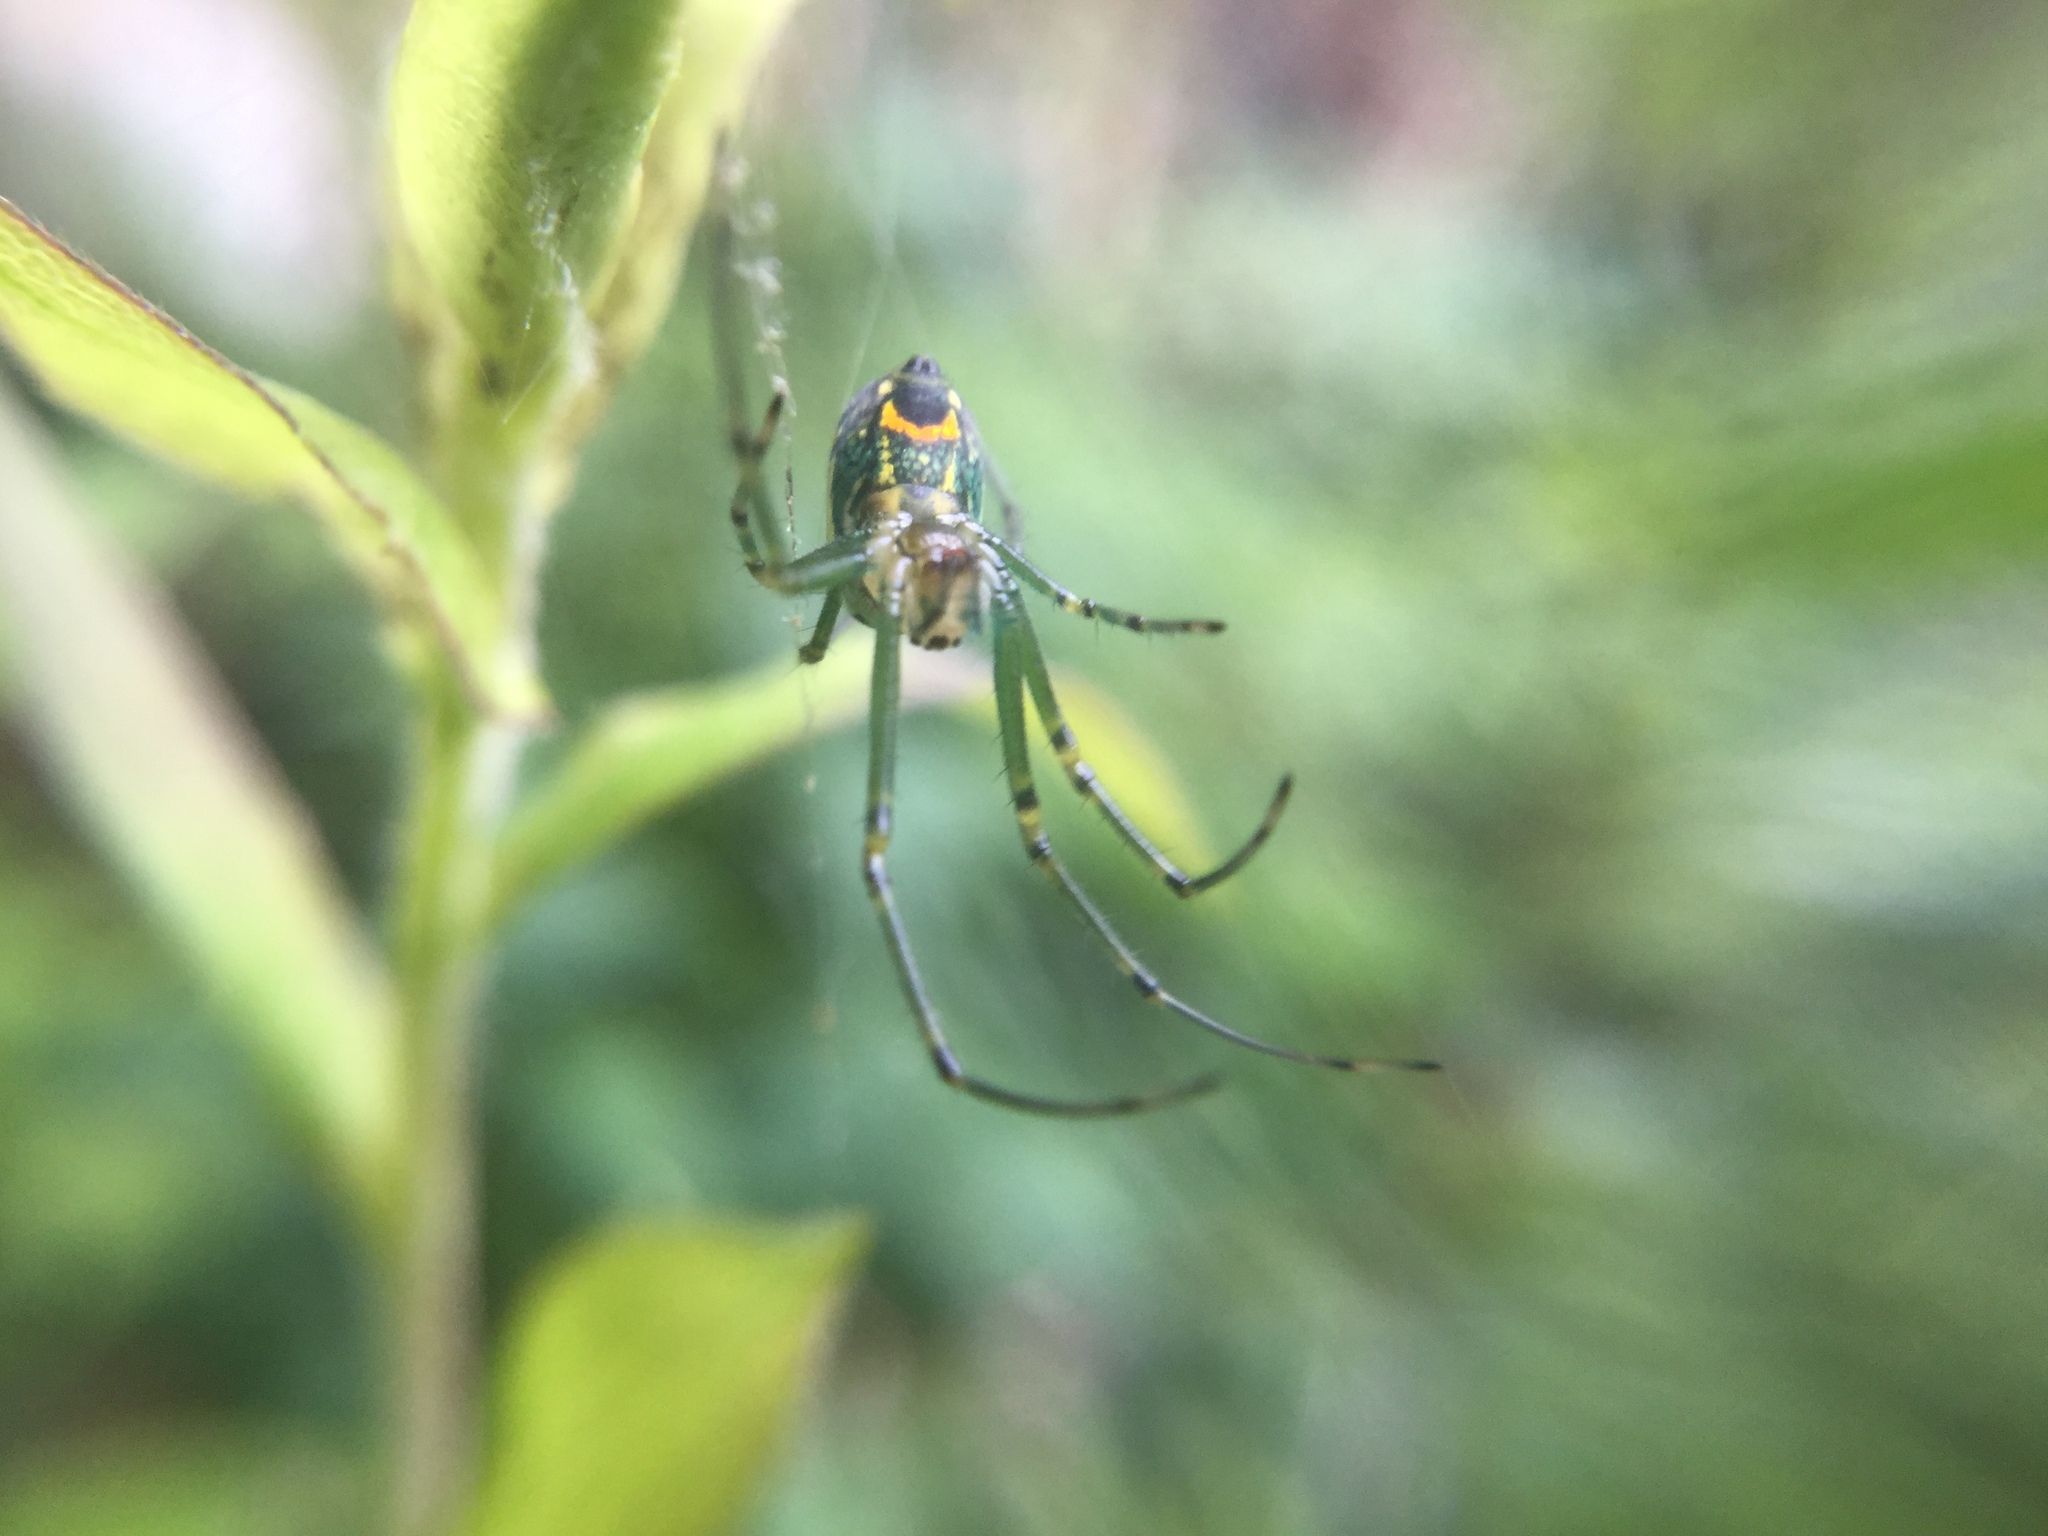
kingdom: Animalia
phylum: Arthropoda
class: Arachnida
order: Araneae
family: Tetragnathidae
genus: Leucauge
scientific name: Leucauge venusta
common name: Longjawed orb weavers
